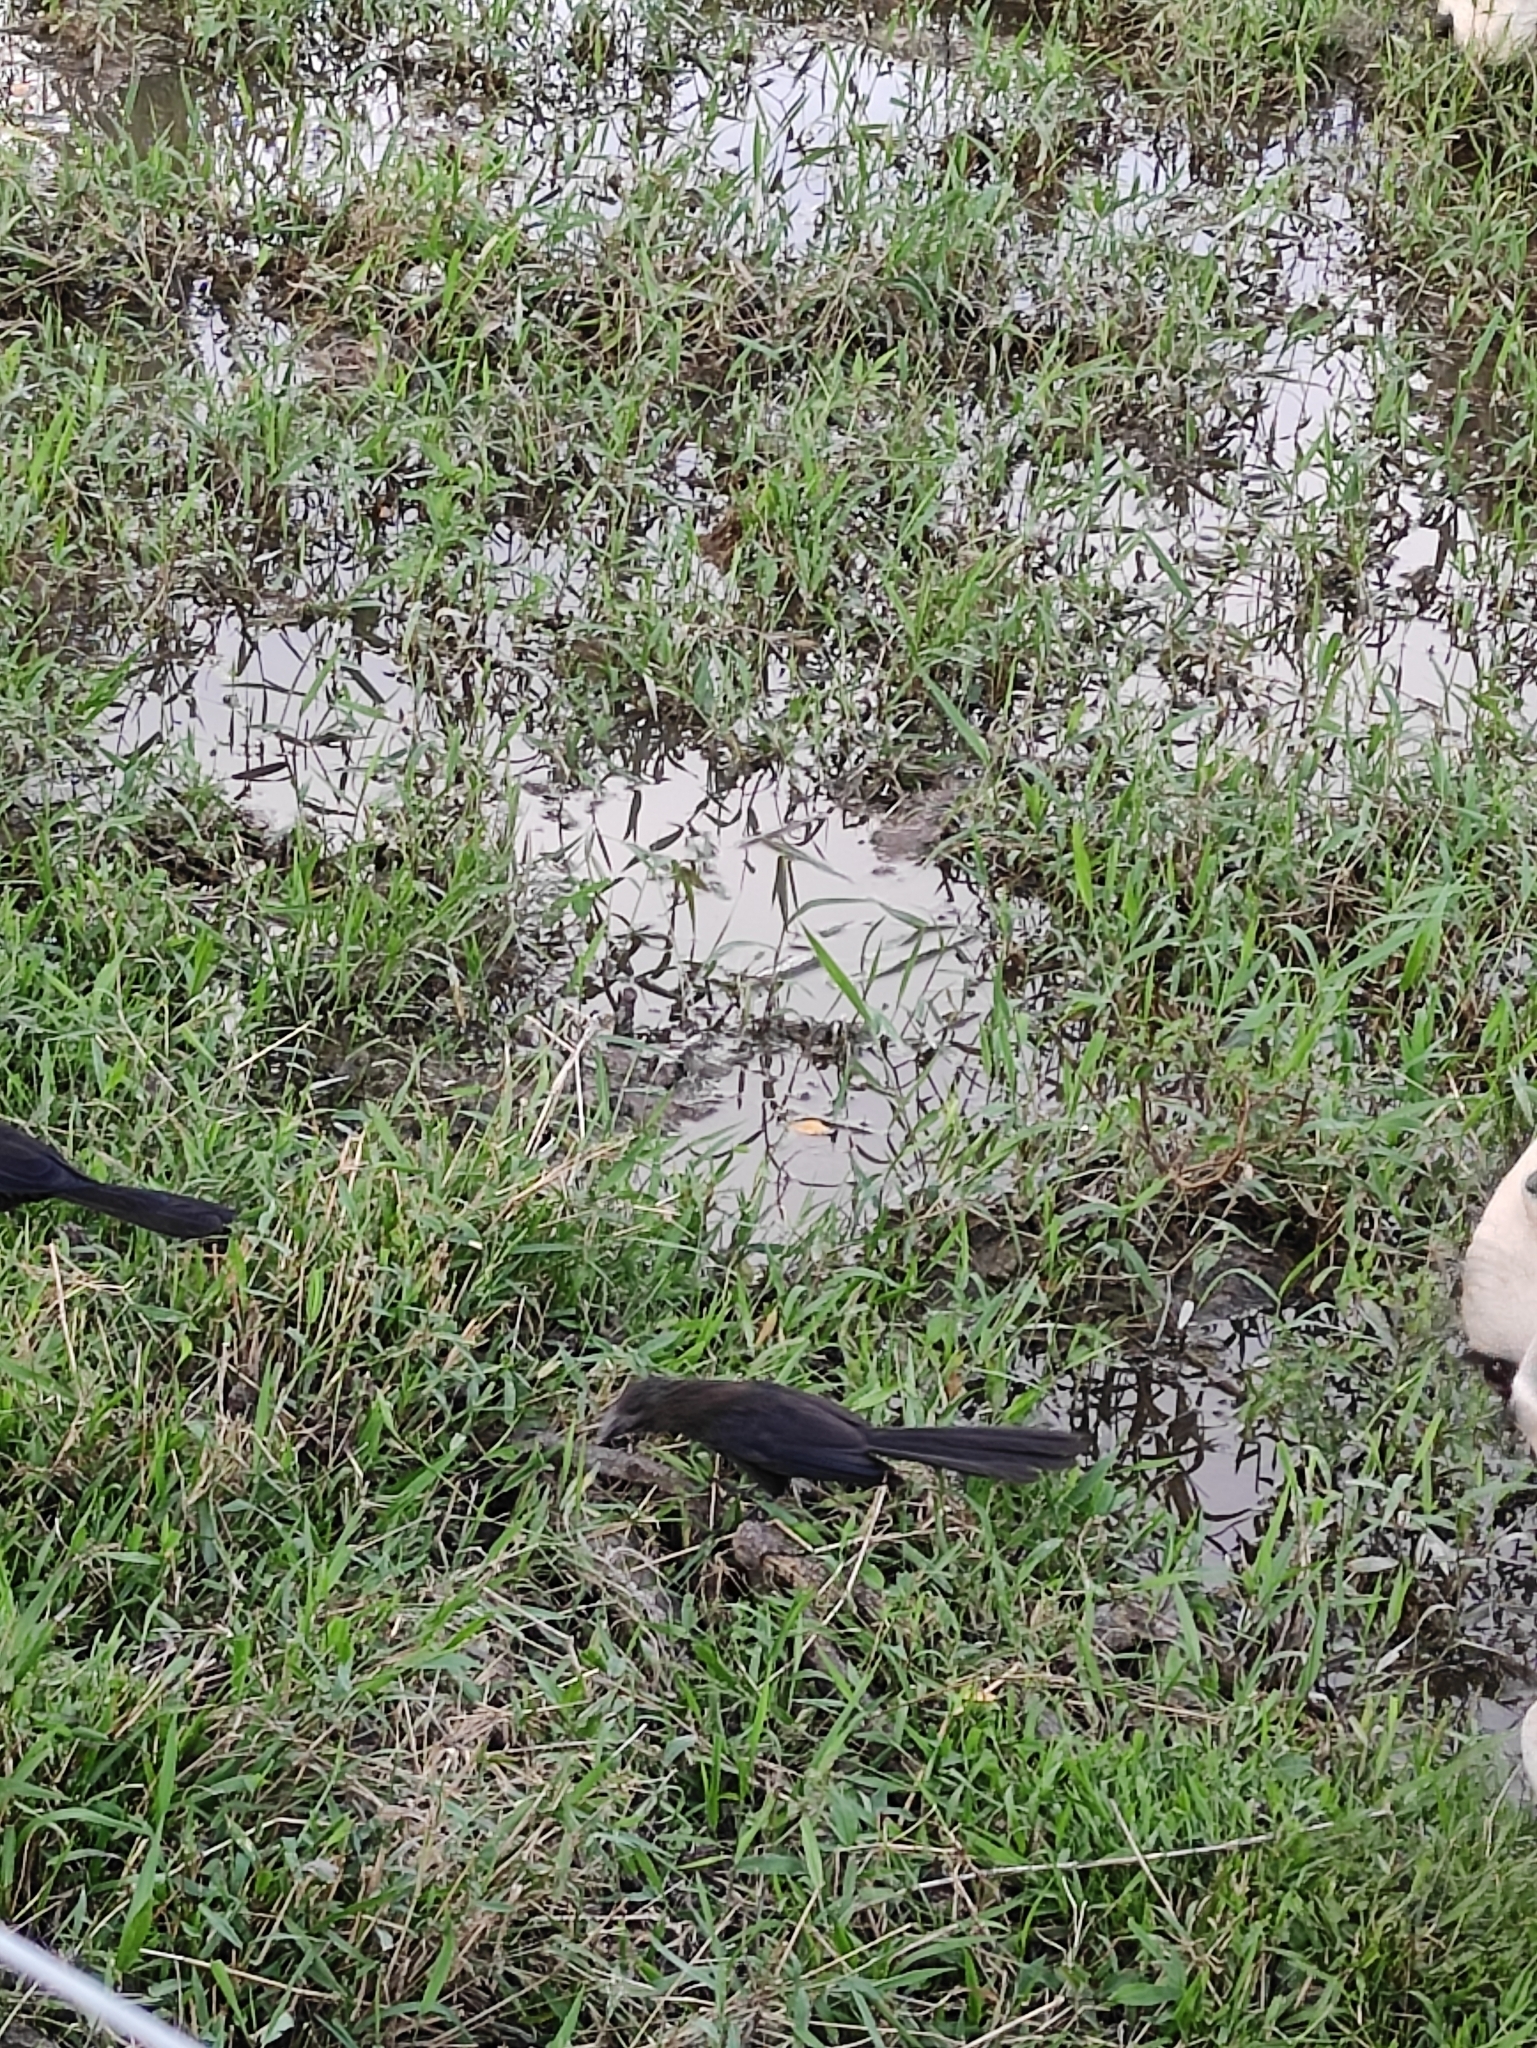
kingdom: Animalia
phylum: Chordata
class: Aves
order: Cuculiformes
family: Cuculidae
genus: Crotophaga
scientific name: Crotophaga ani
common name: Smooth-billed ani
